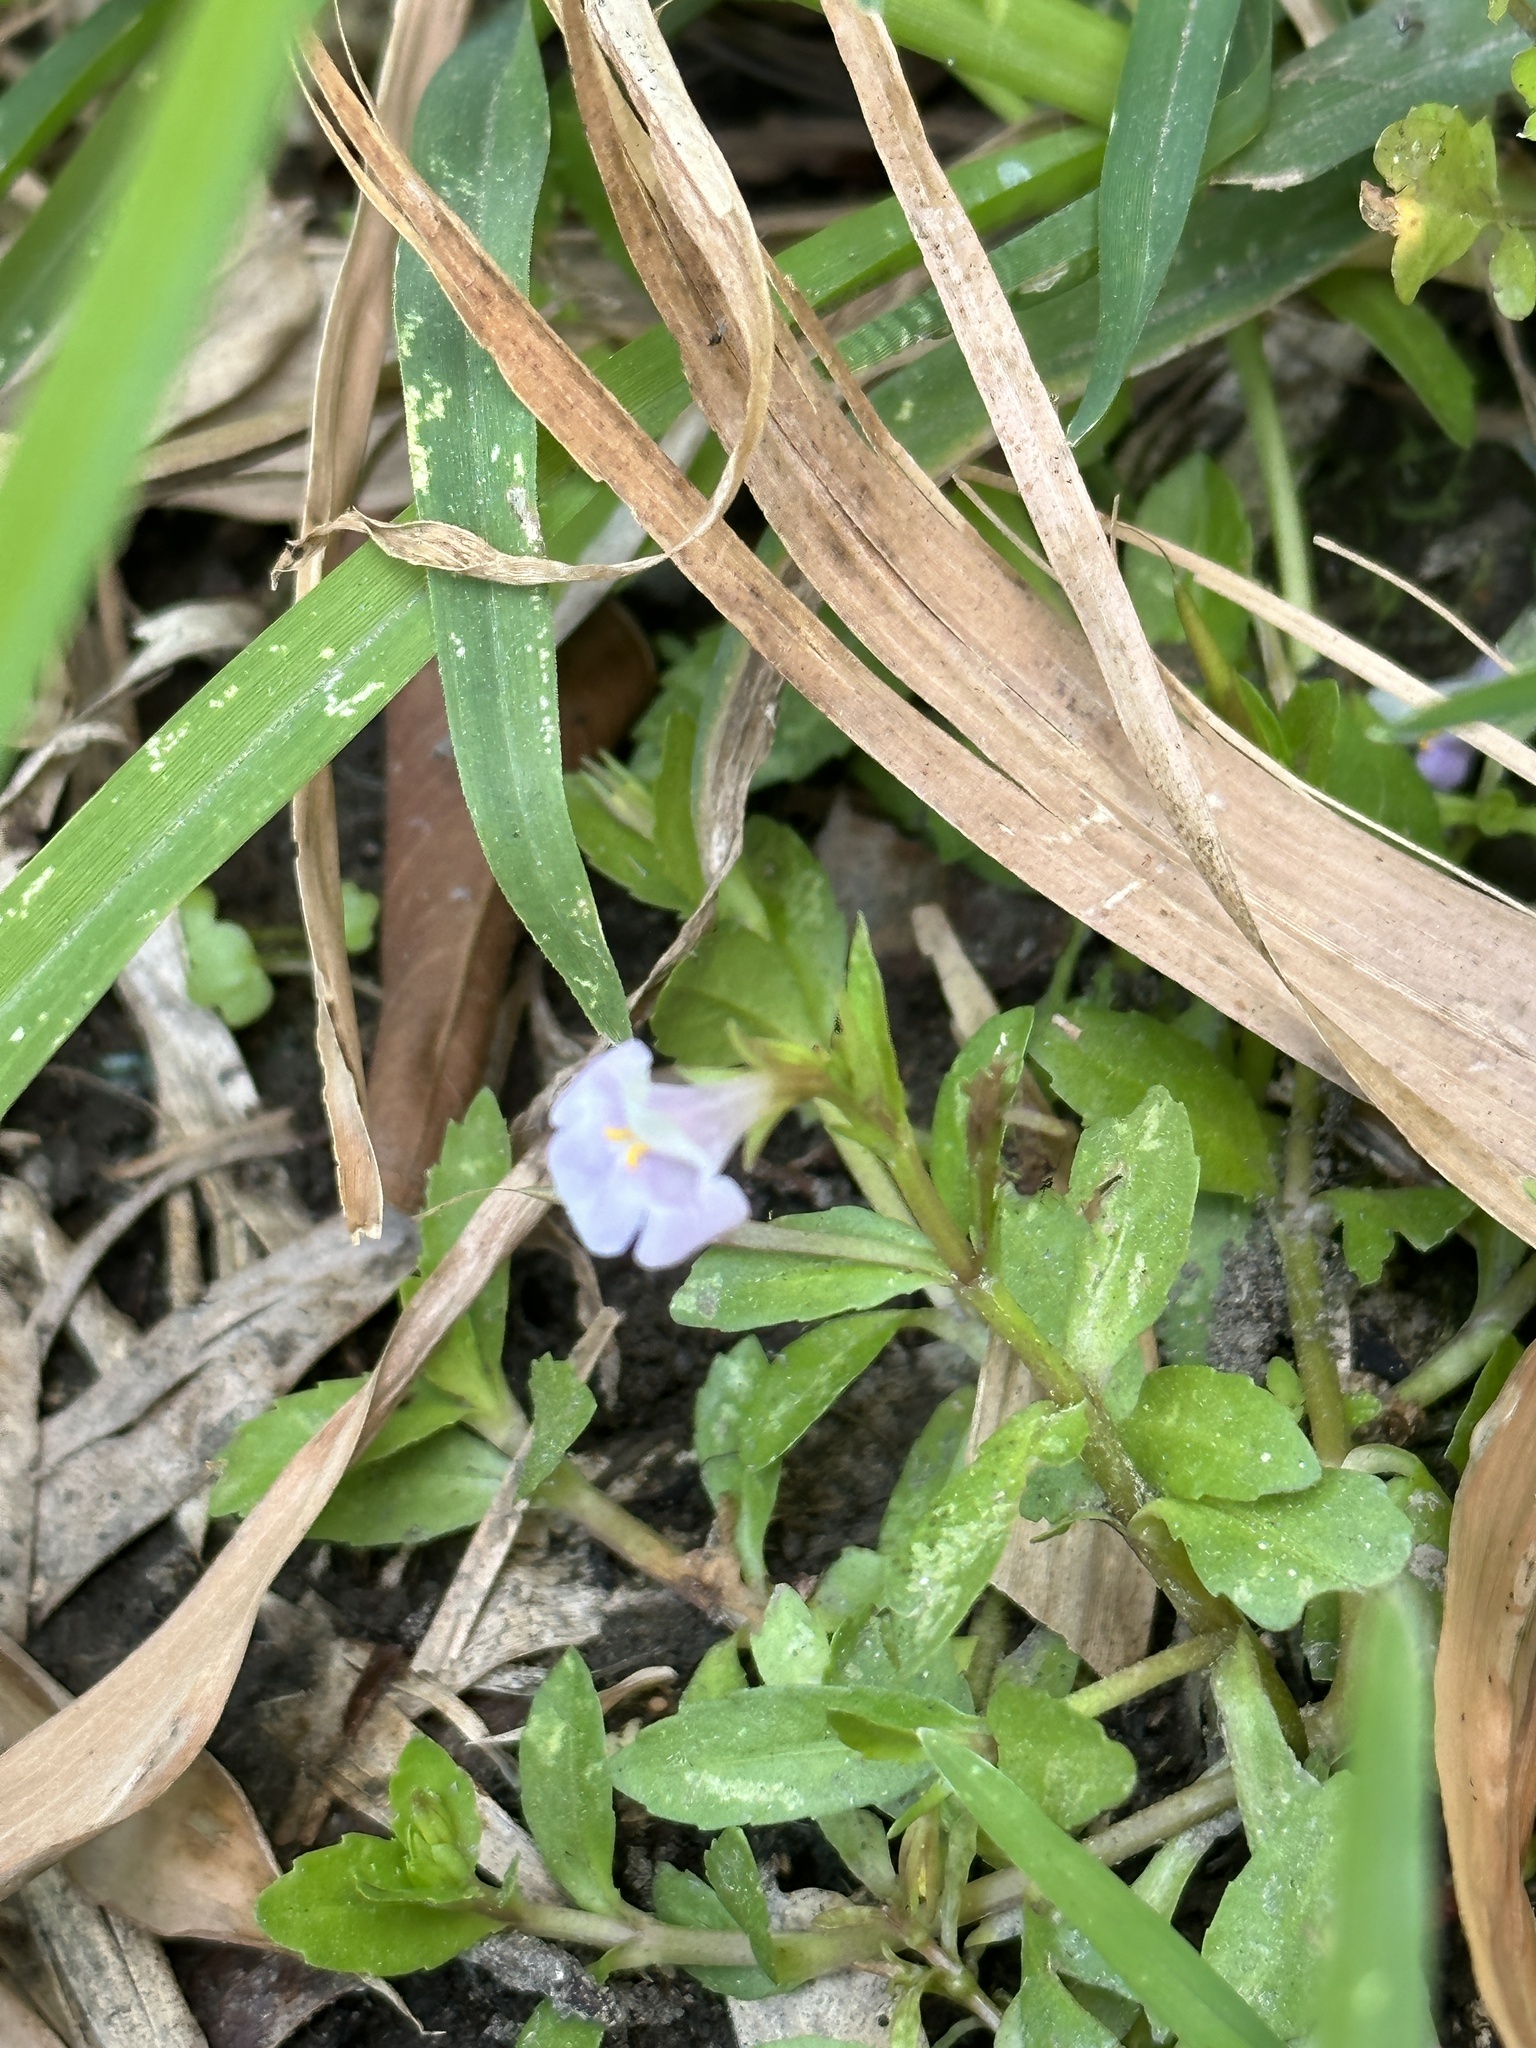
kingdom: Plantae
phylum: Tracheophyta
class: Magnoliopsida
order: Lamiales
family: Linderniaceae
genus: Bonnaya
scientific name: Bonnaya antipoda
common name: Sparrow false pimpernel
